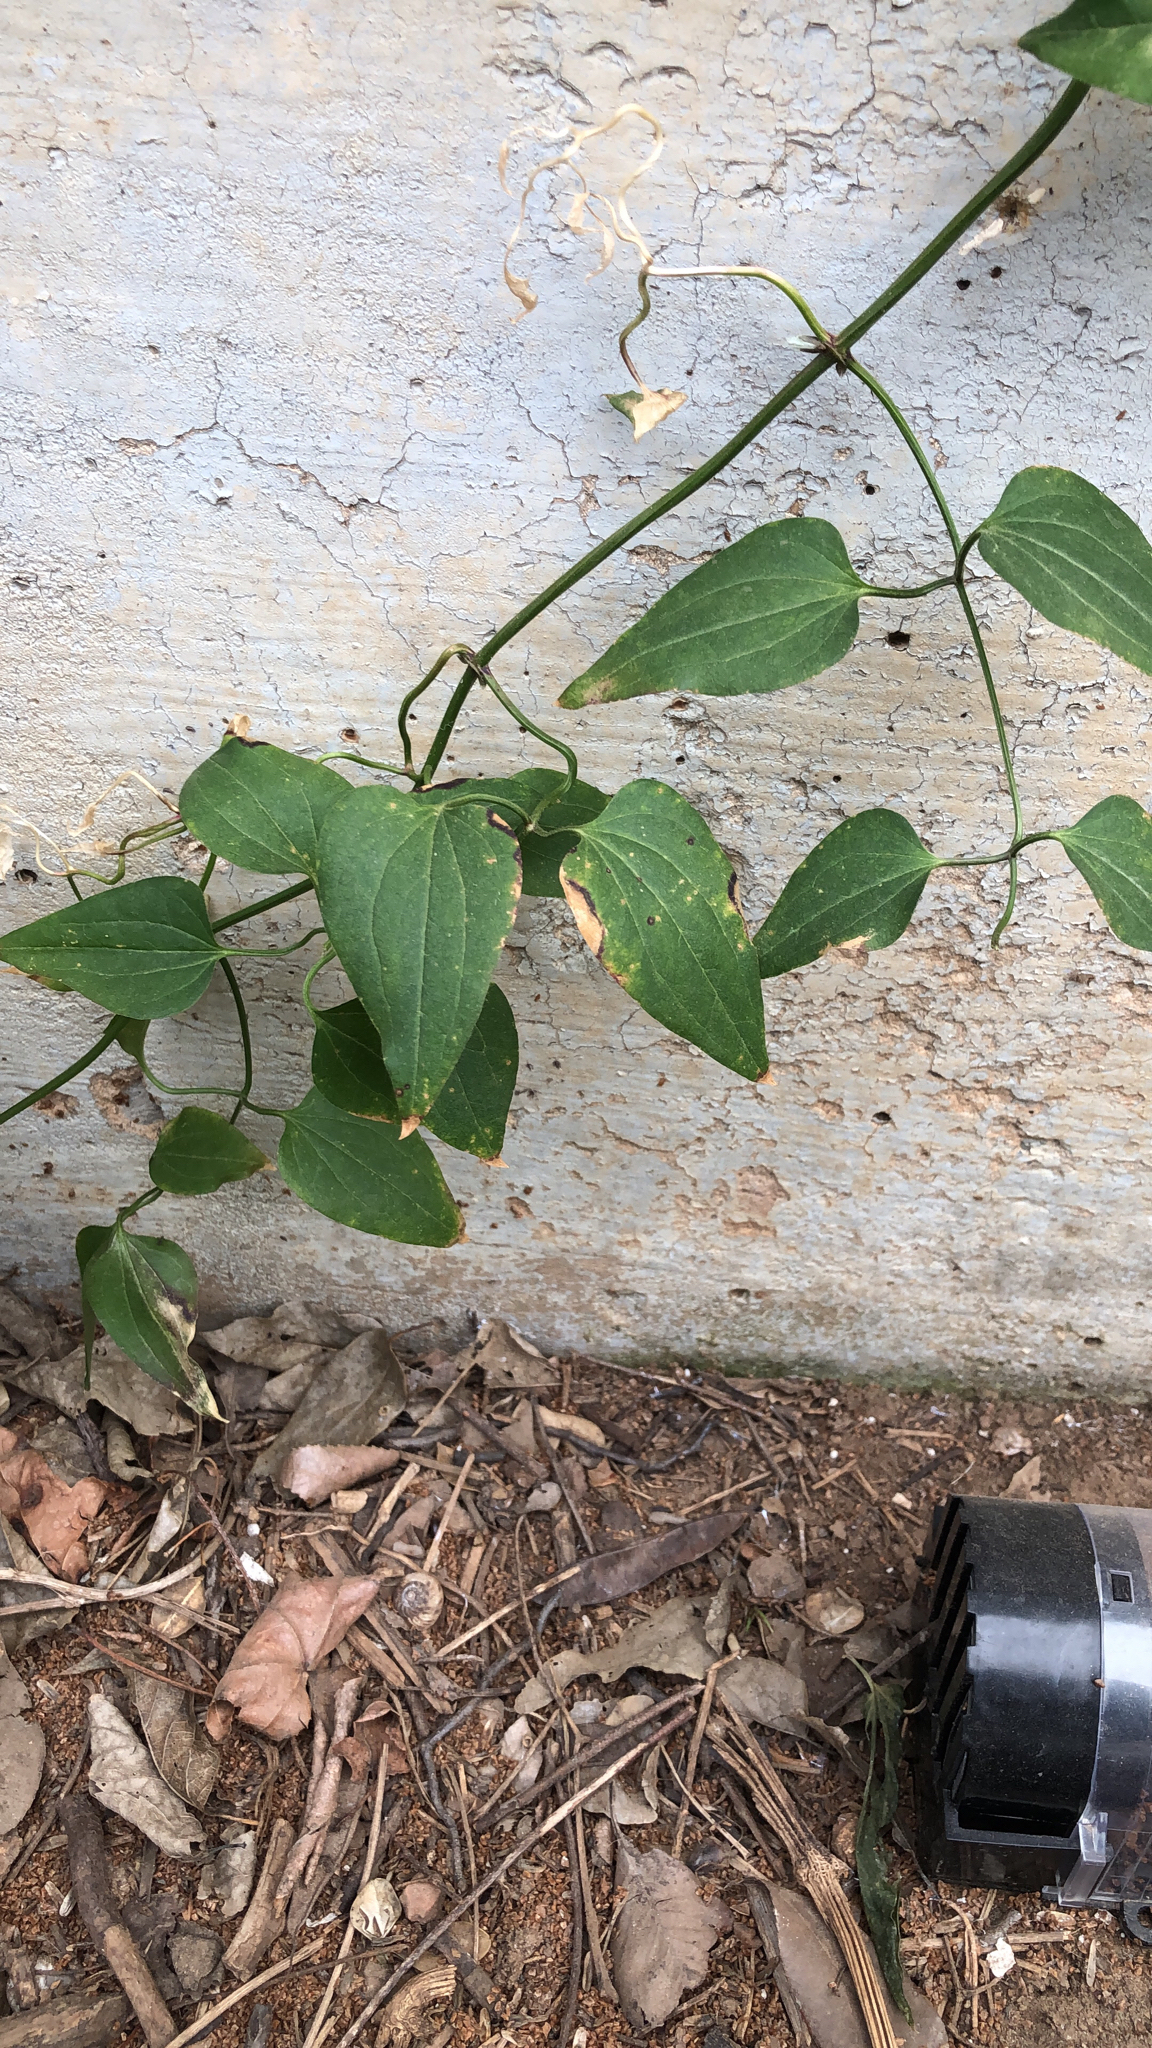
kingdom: Plantae
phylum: Tracheophyta
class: Magnoliopsida
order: Ranunculales
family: Ranunculaceae
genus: Clematis
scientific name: Clematis terniflora
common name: Sweet autumn clematis
